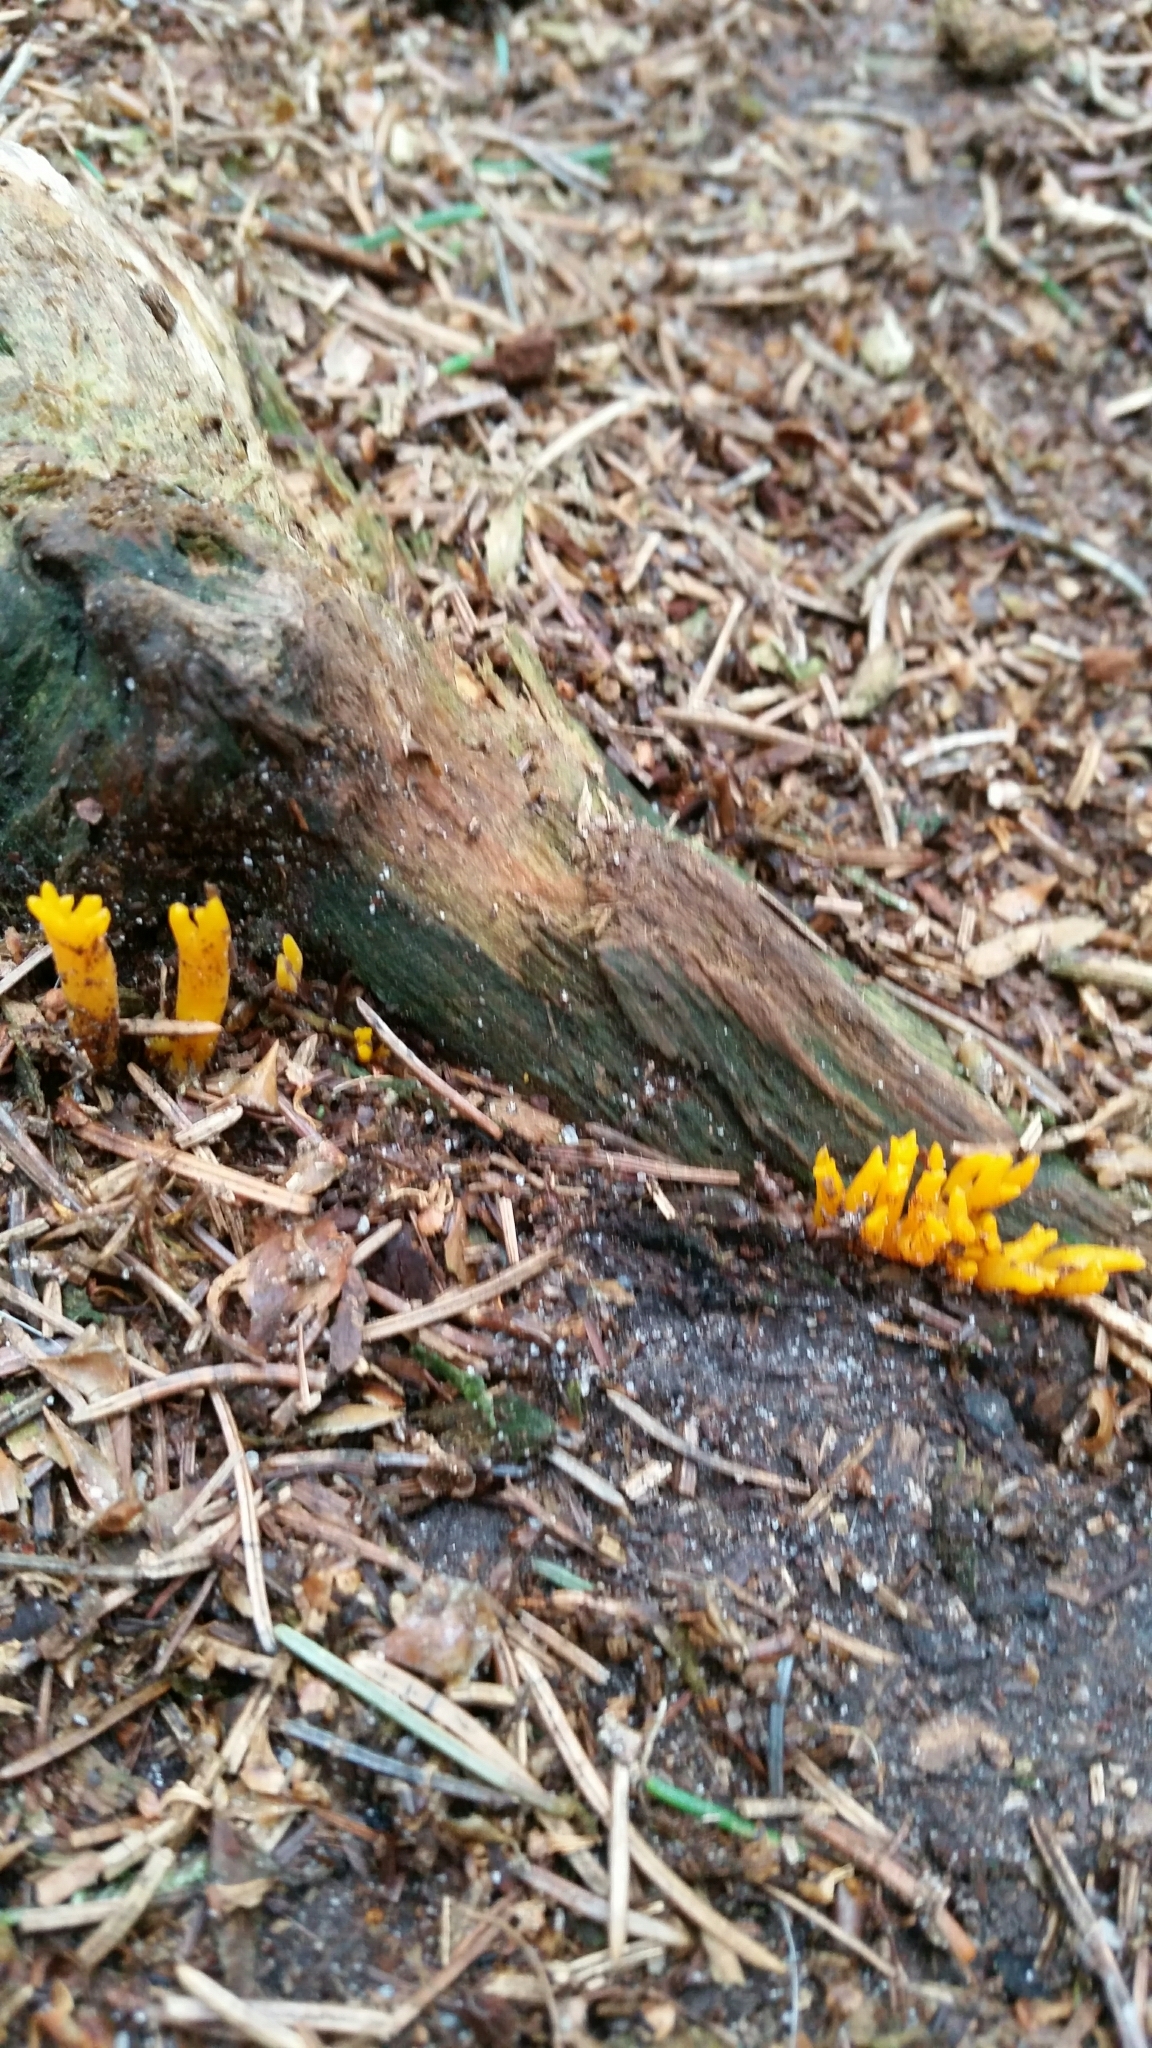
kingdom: Fungi
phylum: Basidiomycota
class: Dacrymycetes
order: Dacrymycetales
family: Dacrymycetaceae
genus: Calocera
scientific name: Calocera viscosa
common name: Yellow stagshorn
